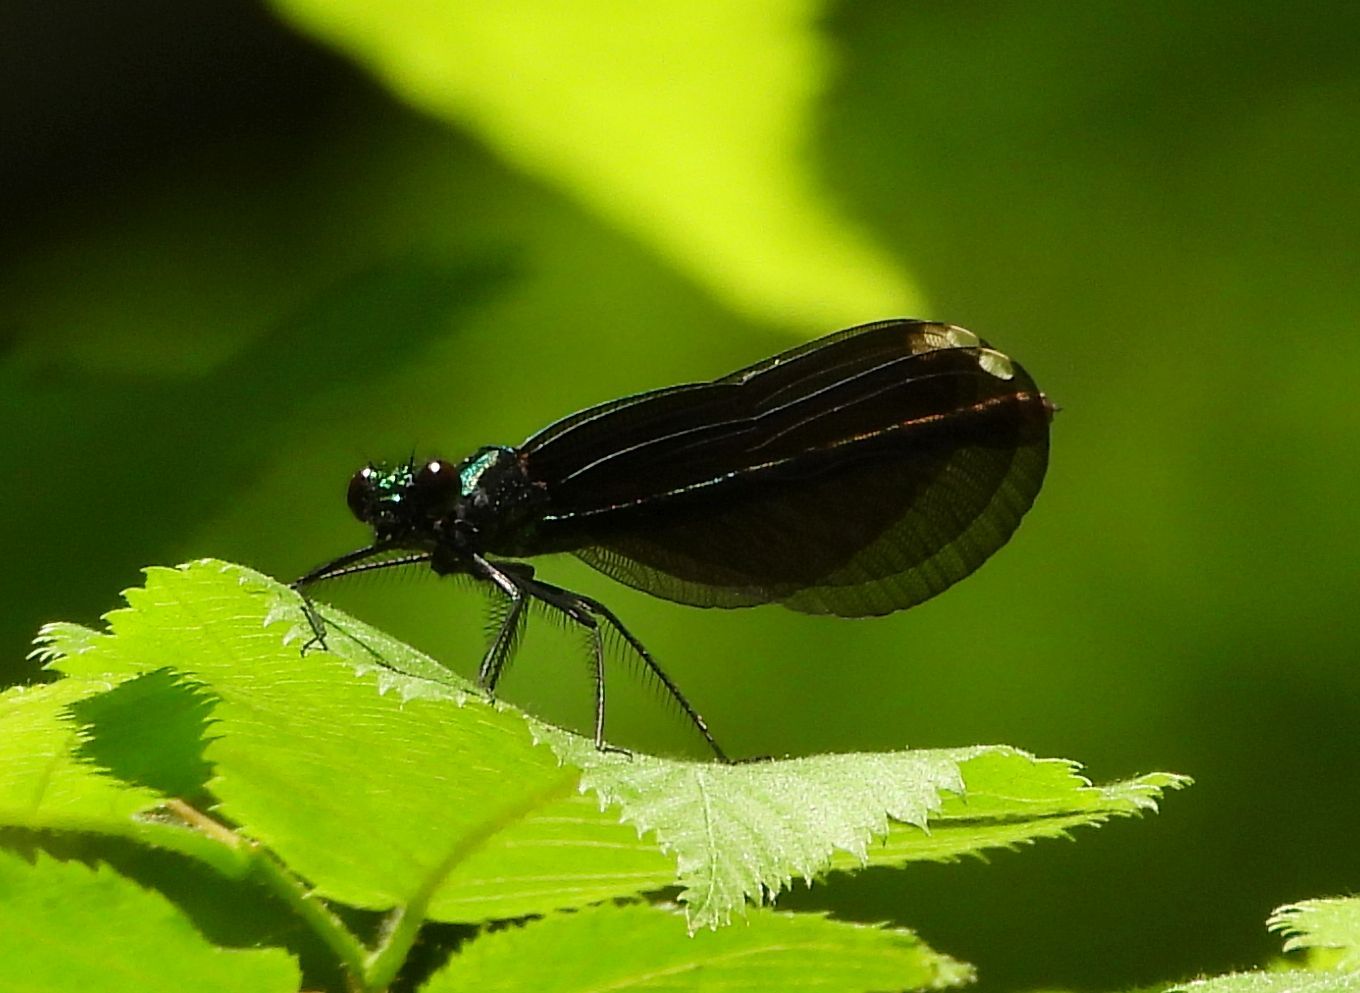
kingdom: Animalia
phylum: Arthropoda
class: Insecta
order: Odonata
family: Calopterygidae
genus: Calopteryx
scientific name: Calopteryx maculata
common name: Ebony jewelwing
